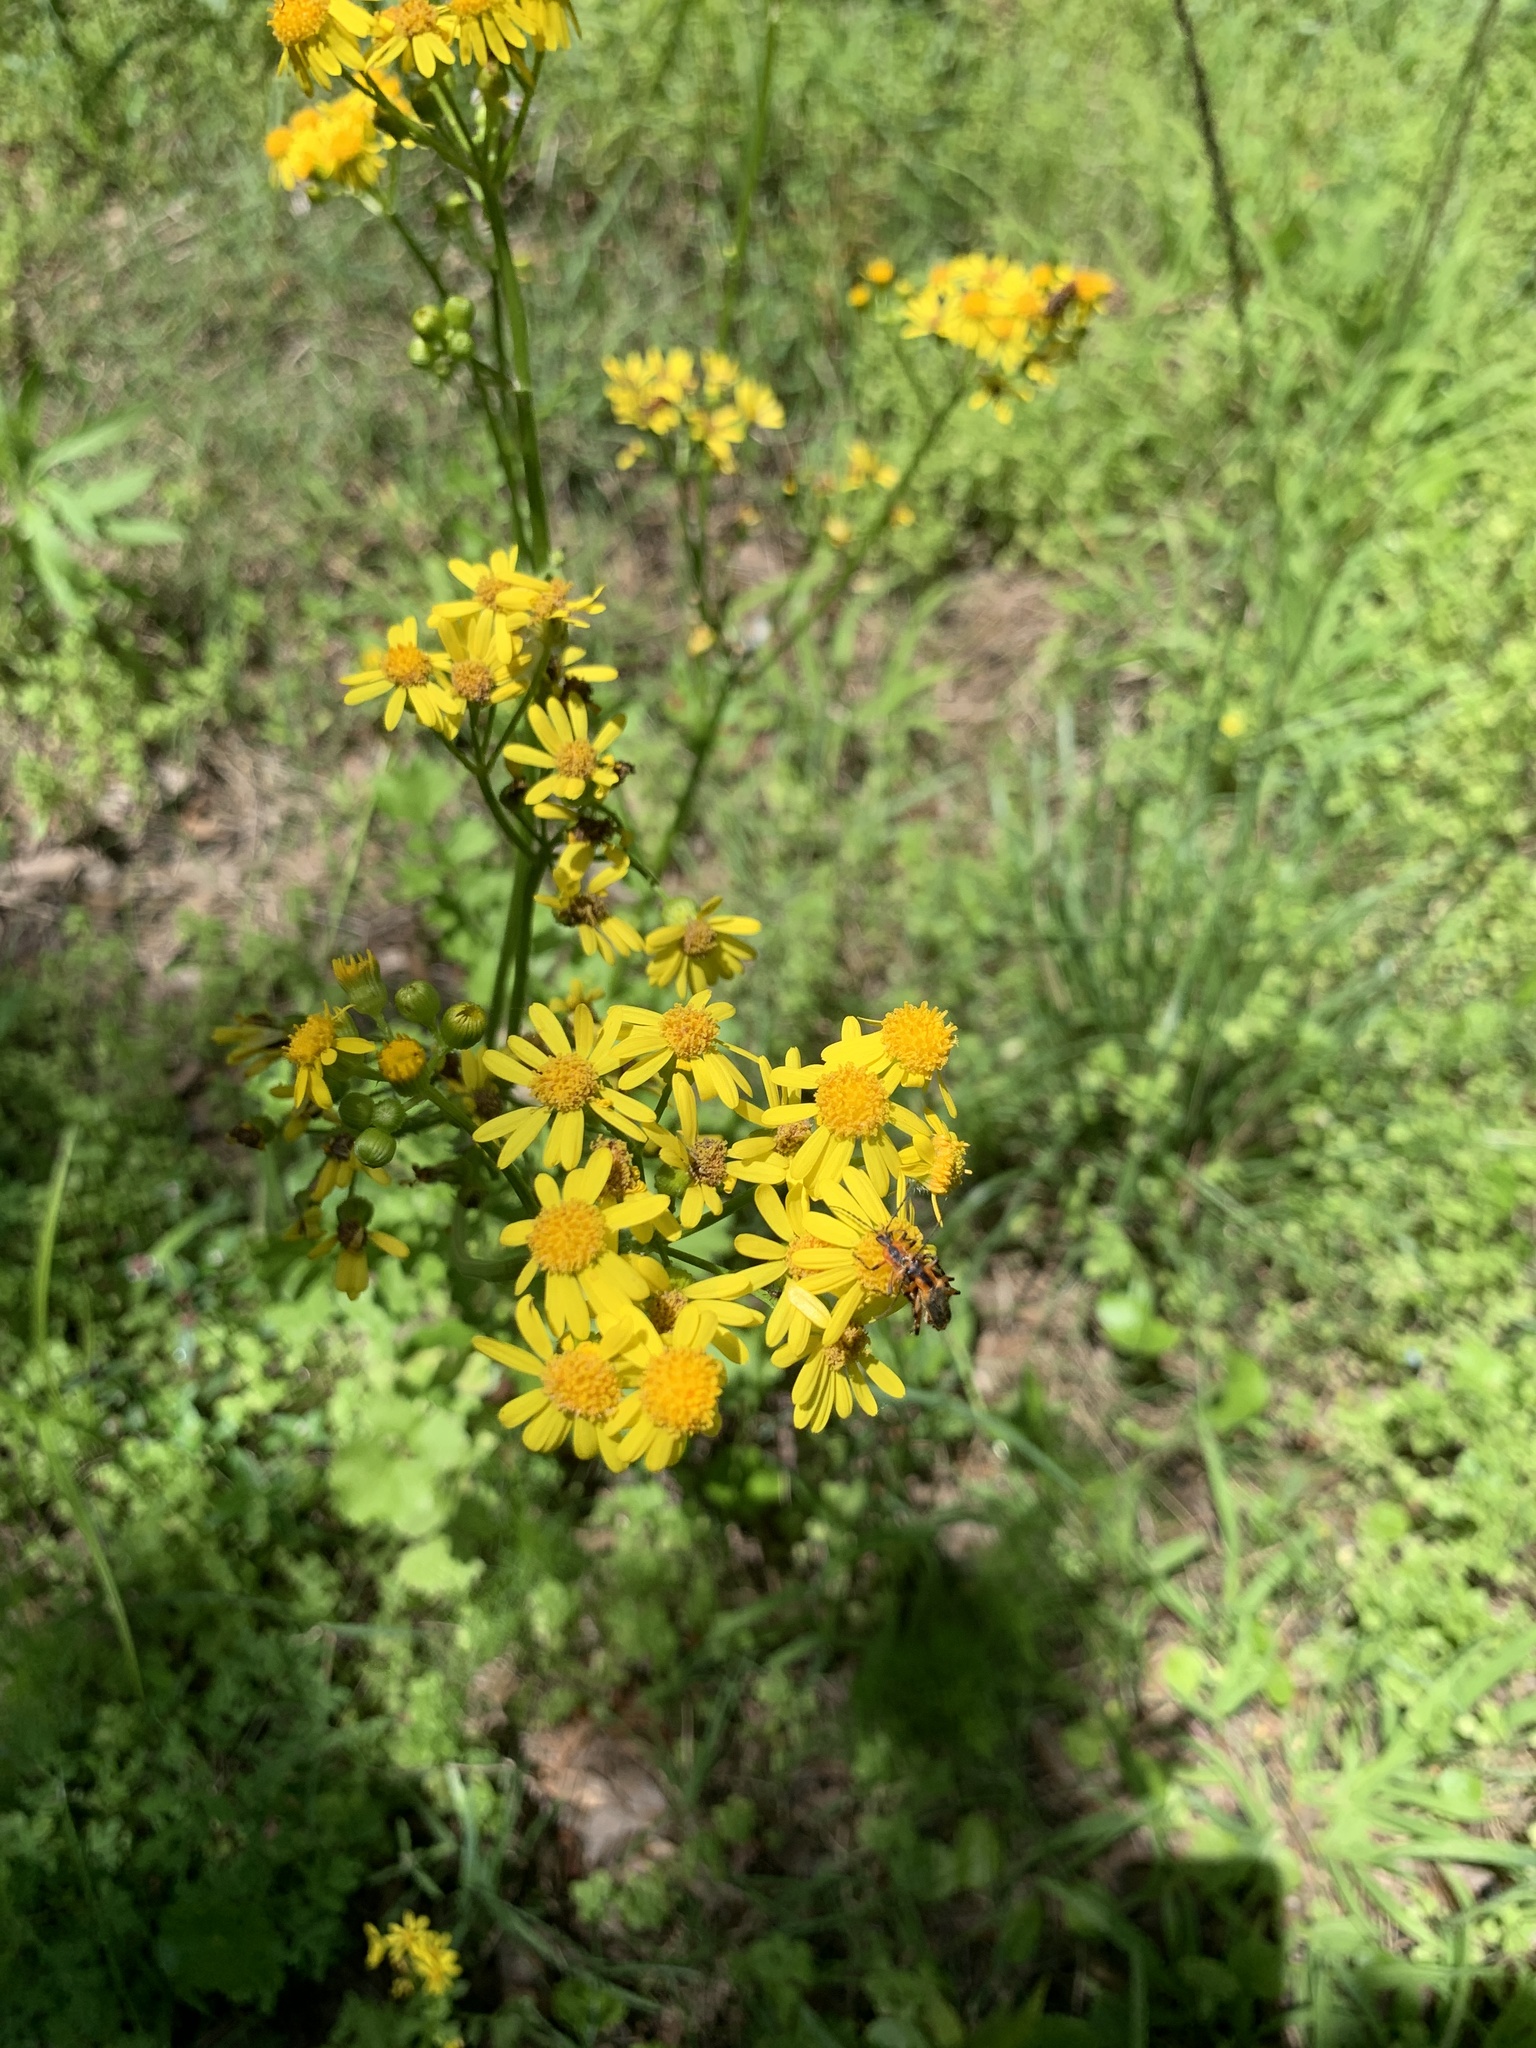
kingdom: Plantae
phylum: Tracheophyta
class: Magnoliopsida
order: Asterales
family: Asteraceae
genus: Packera
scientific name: Packera glabella
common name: Butterweed
